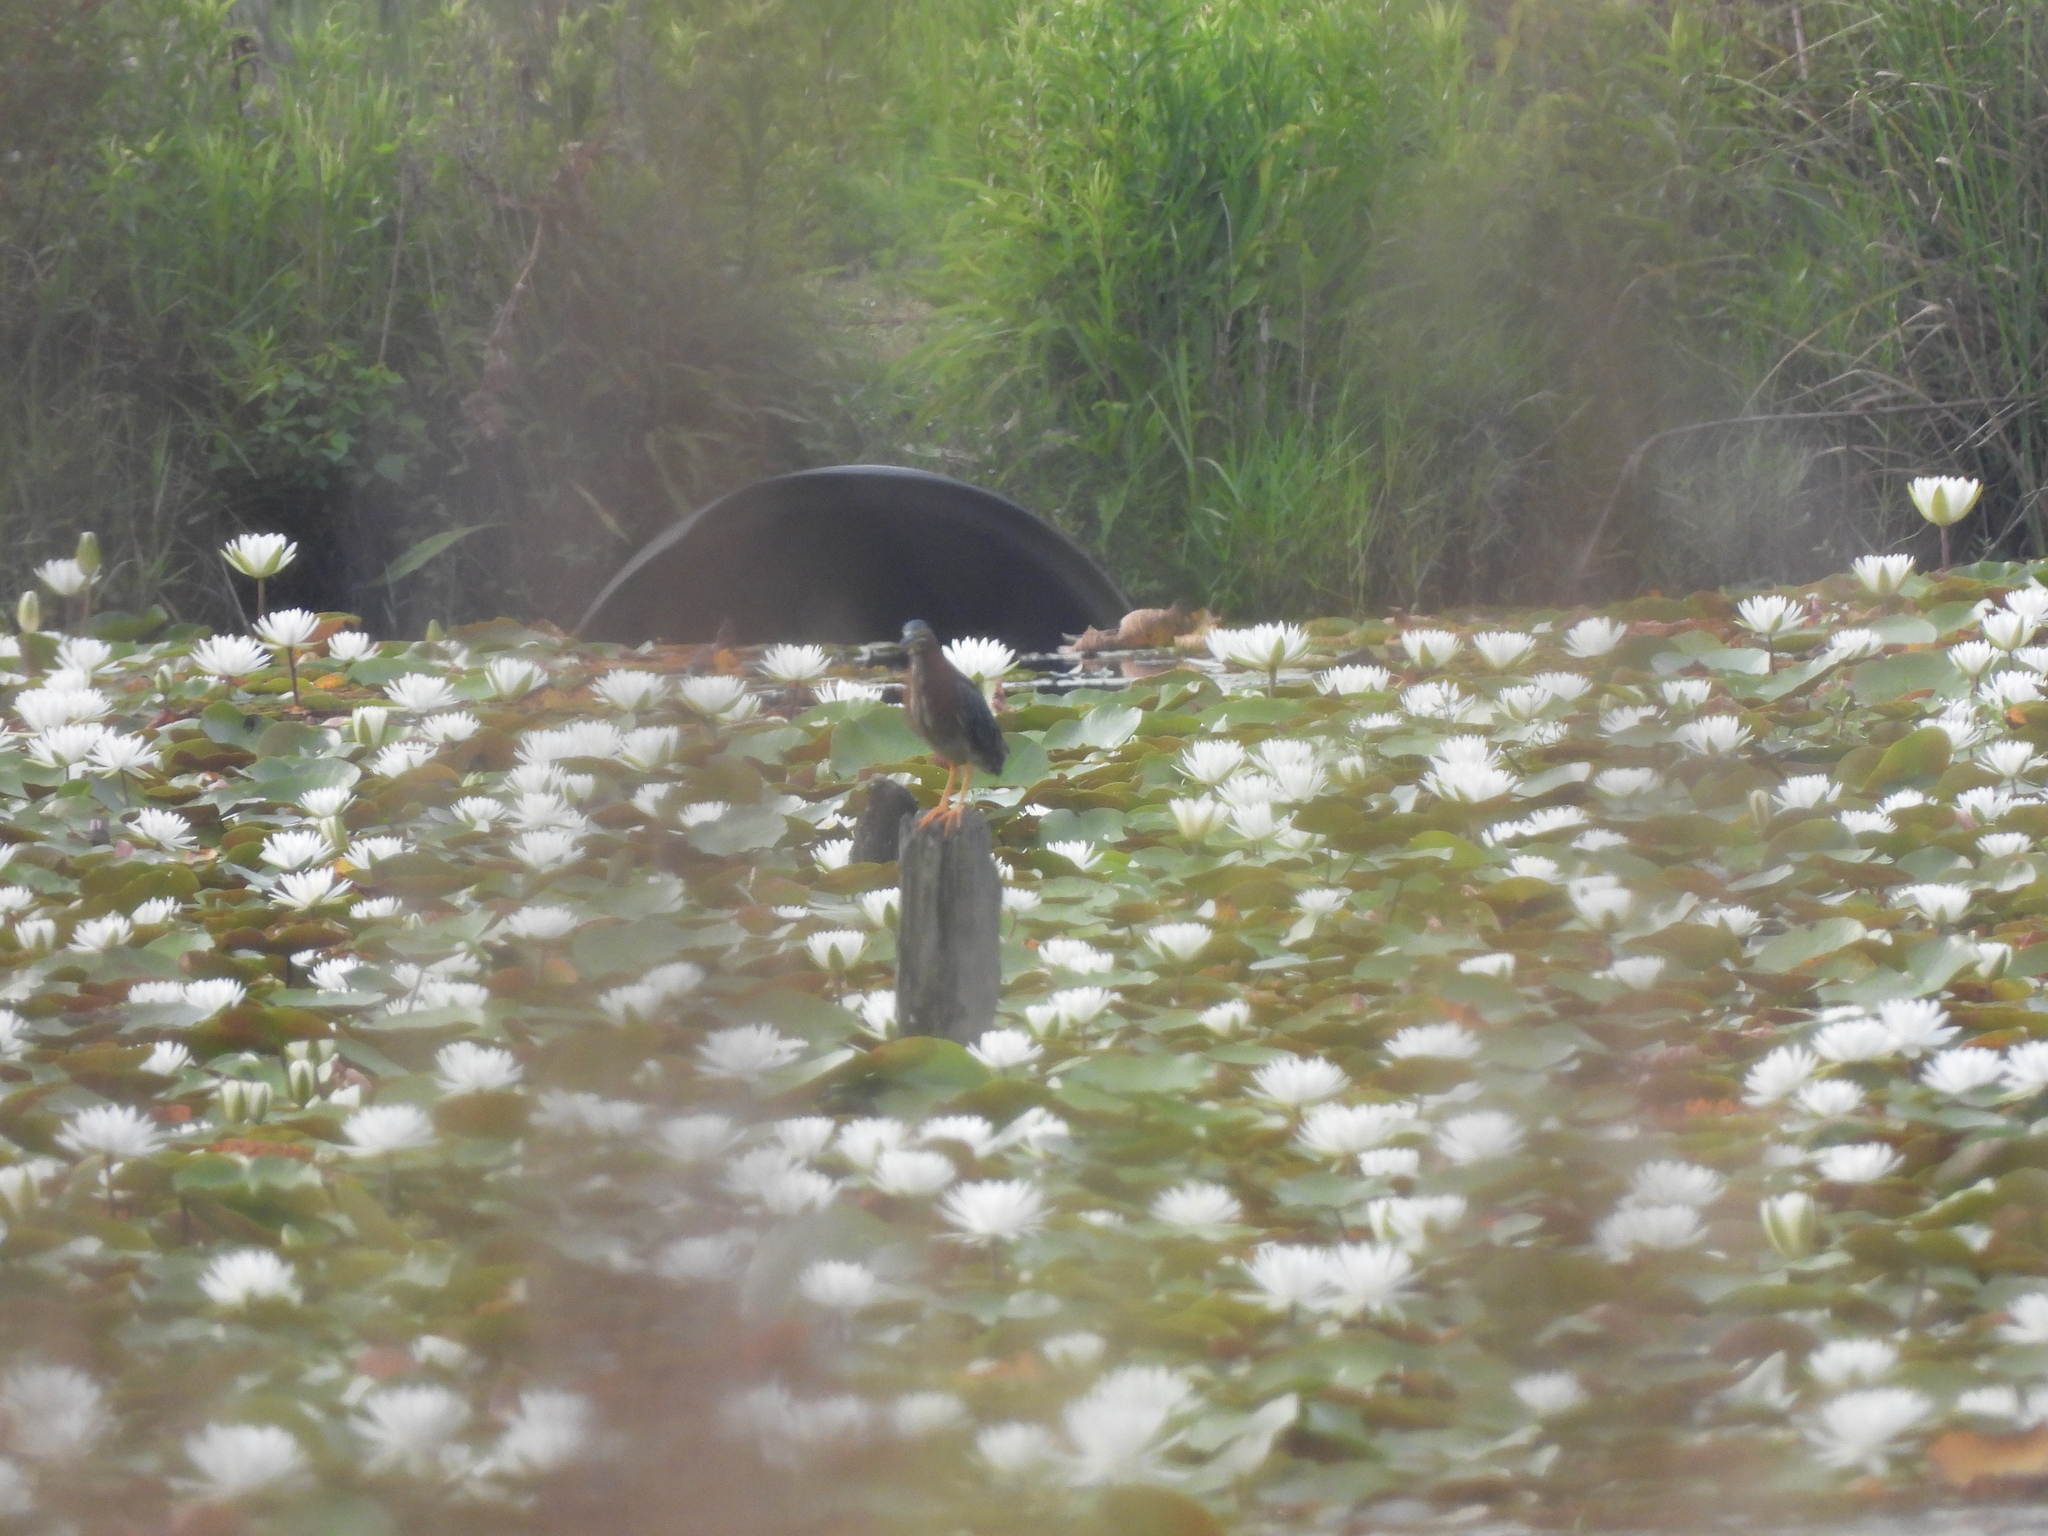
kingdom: Animalia
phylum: Chordata
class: Aves
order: Pelecaniformes
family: Ardeidae
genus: Butorides
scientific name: Butorides virescens
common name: Green heron
